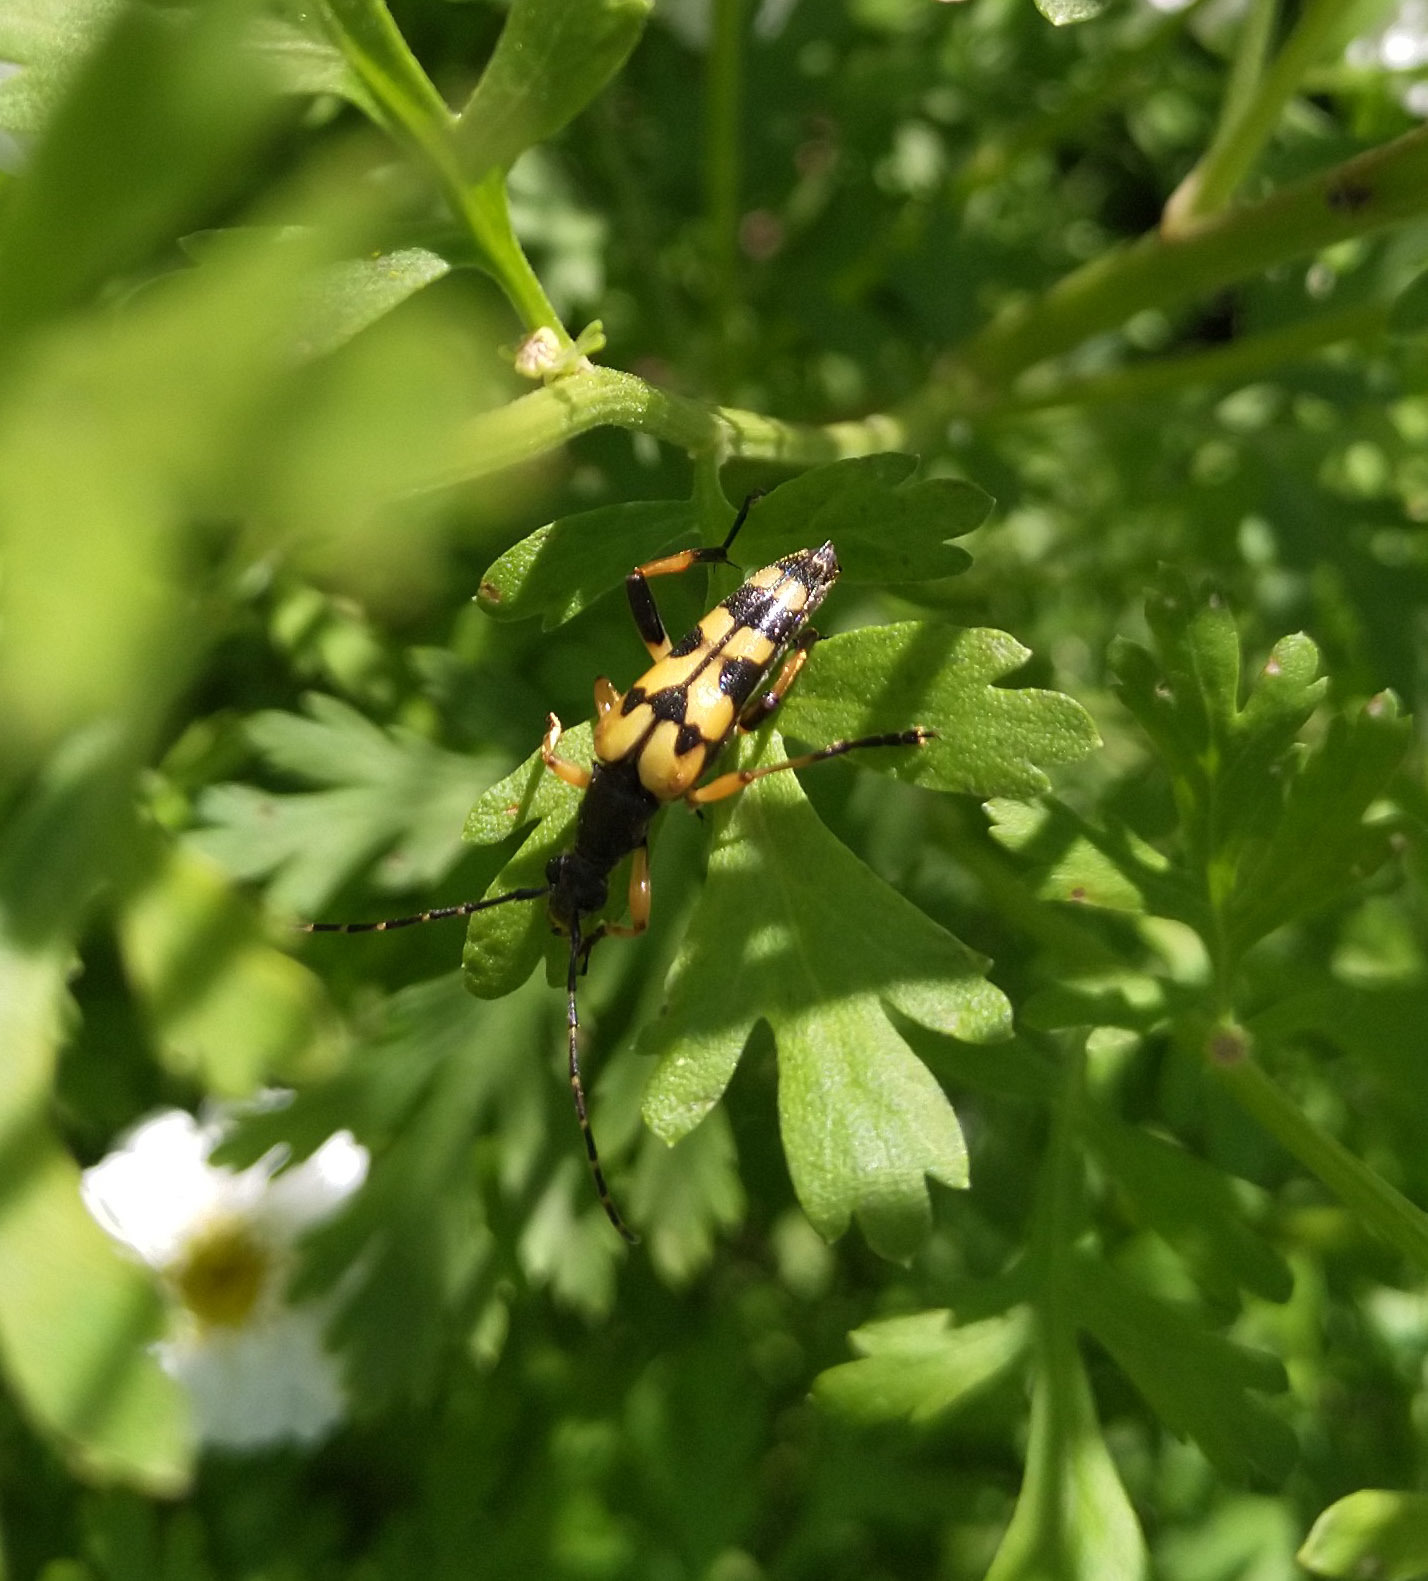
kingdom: Animalia
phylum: Arthropoda
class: Insecta
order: Coleoptera
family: Cerambycidae
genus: Rutpela
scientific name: Rutpela maculata
